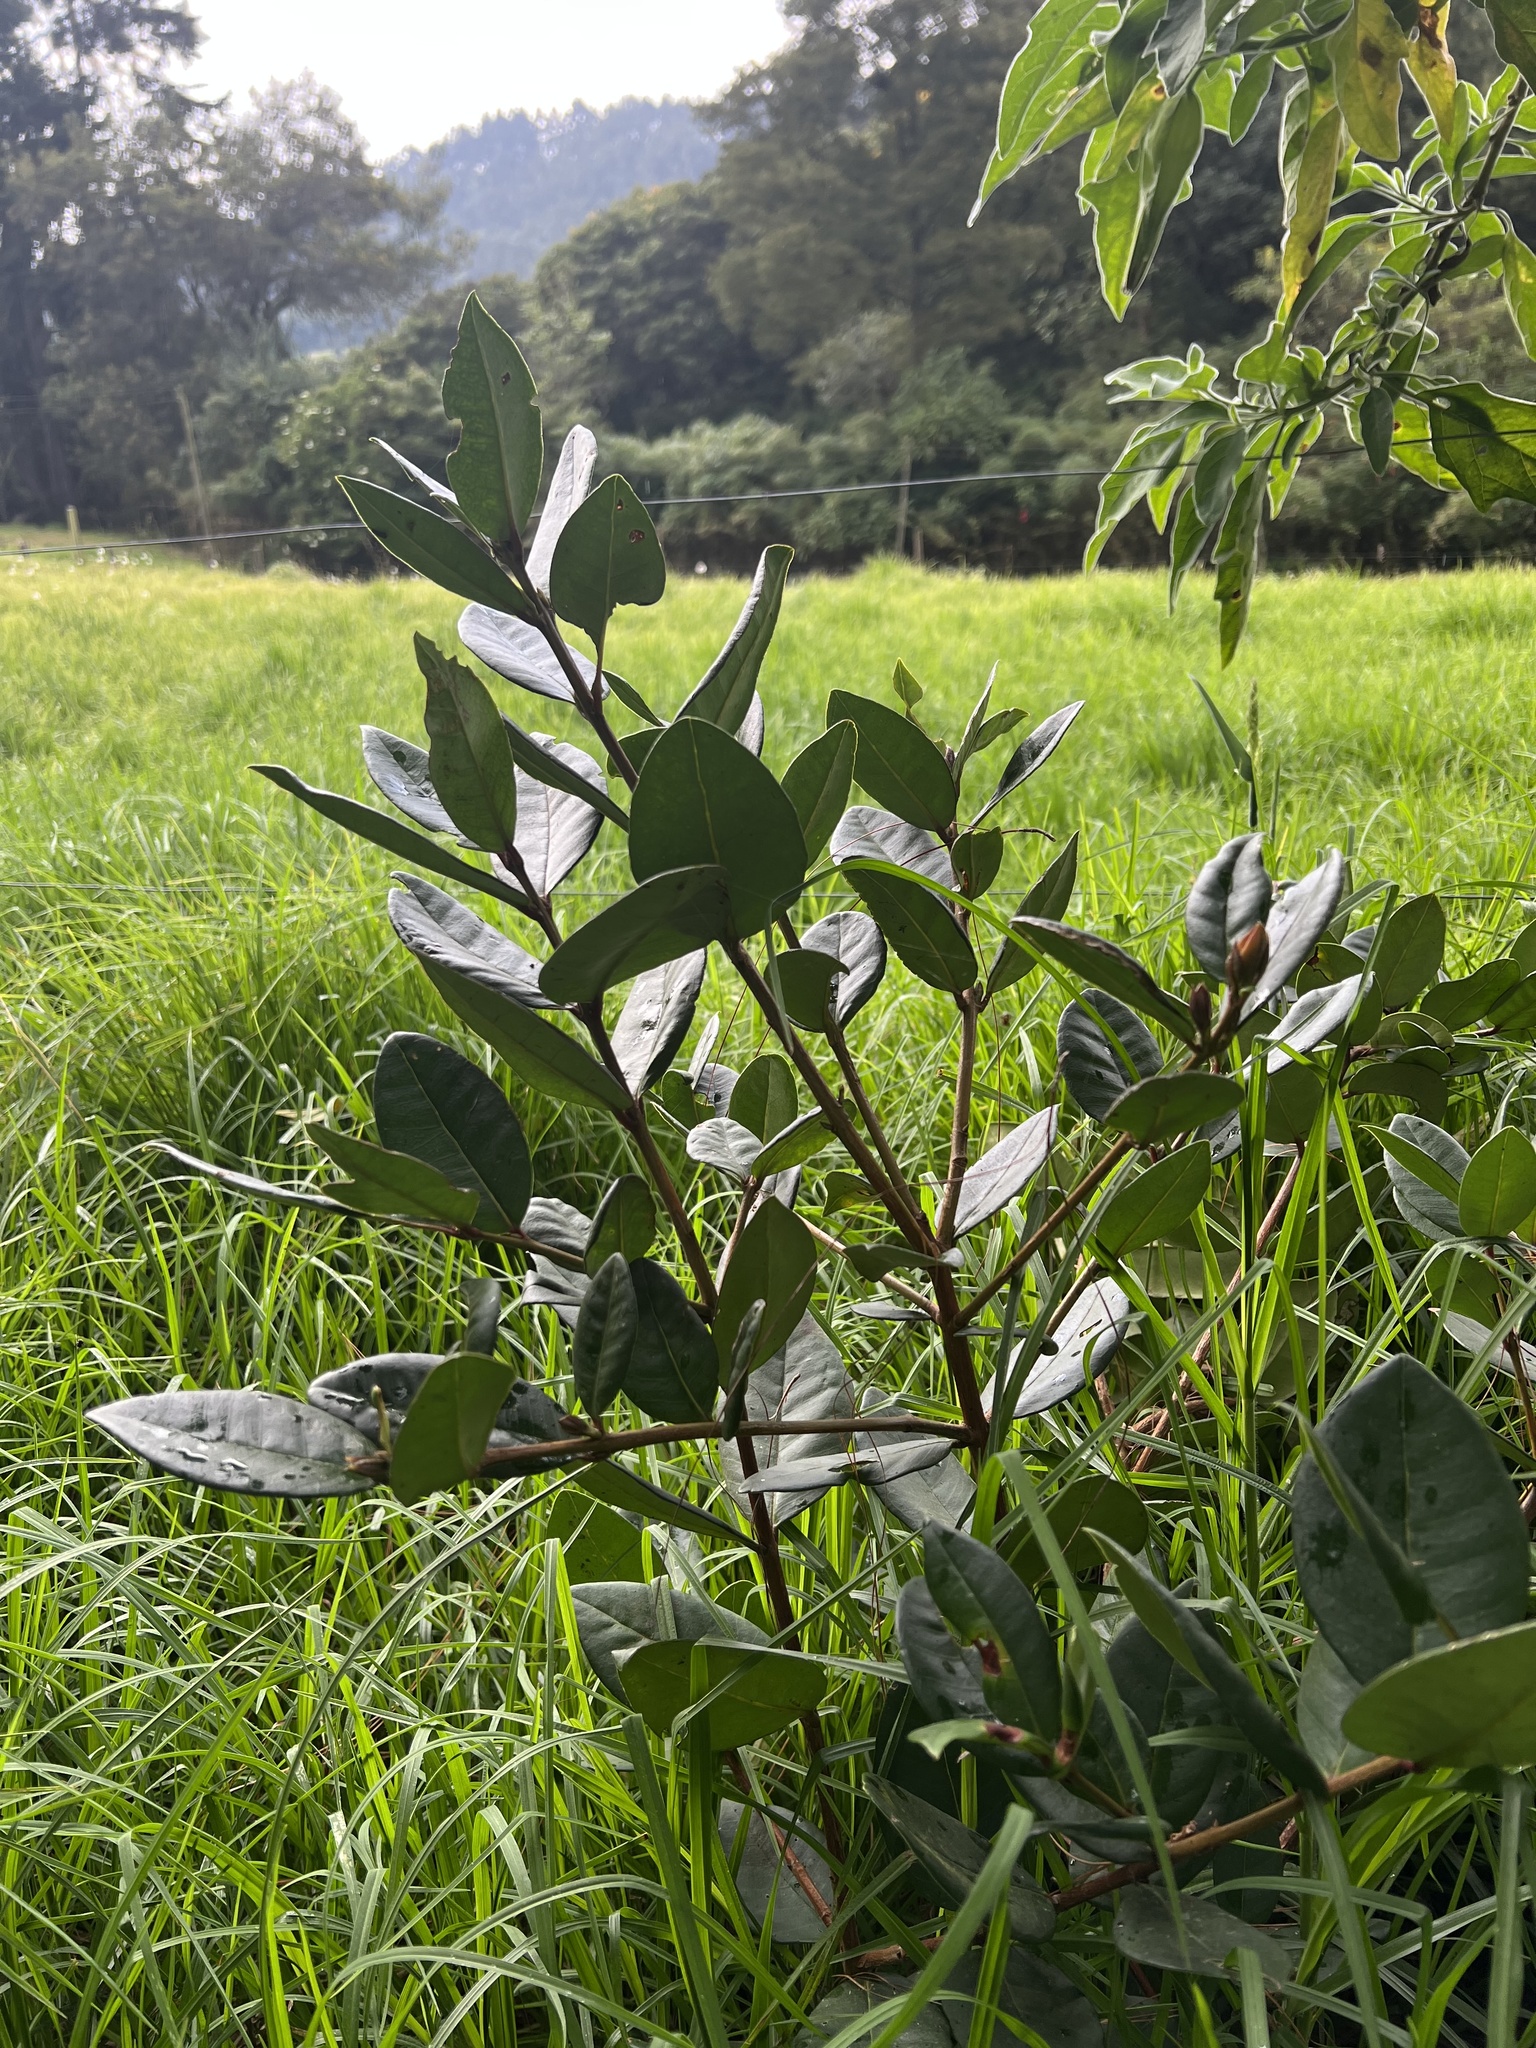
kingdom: Plantae
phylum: Tracheophyta
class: Magnoliopsida
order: Myrtales
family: Myrtaceae
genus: Myrcianthes
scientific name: Myrcianthes rhopaloides
